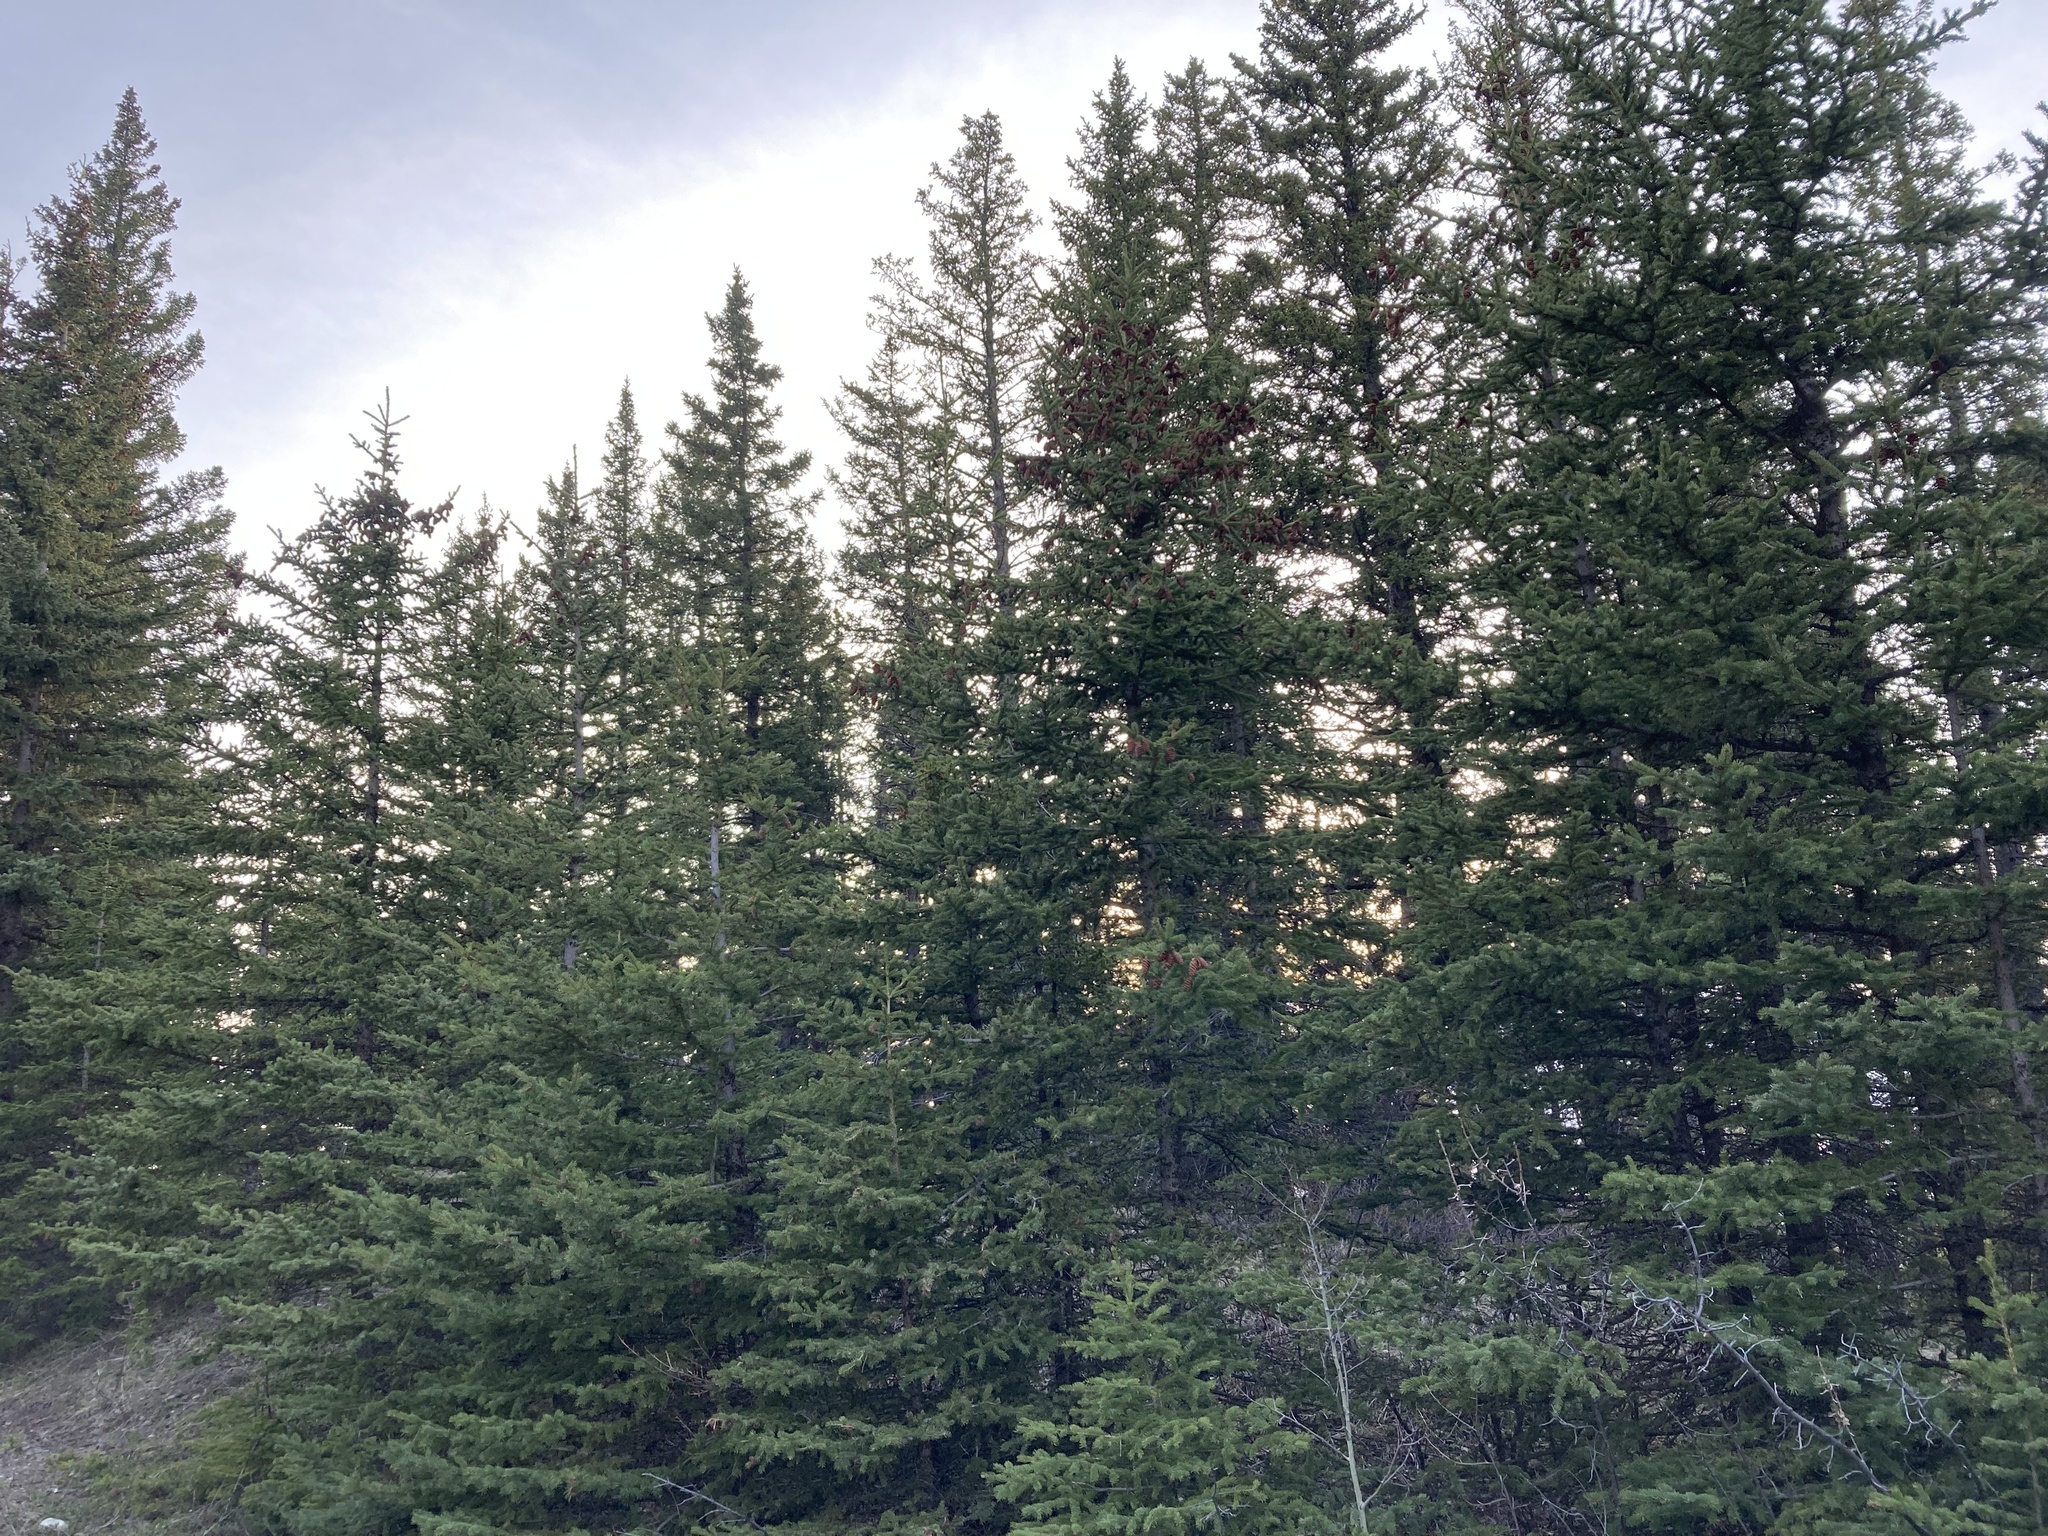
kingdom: Plantae
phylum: Tracheophyta
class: Pinopsida
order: Pinales
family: Pinaceae
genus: Picea
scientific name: Picea glauca
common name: White spruce
